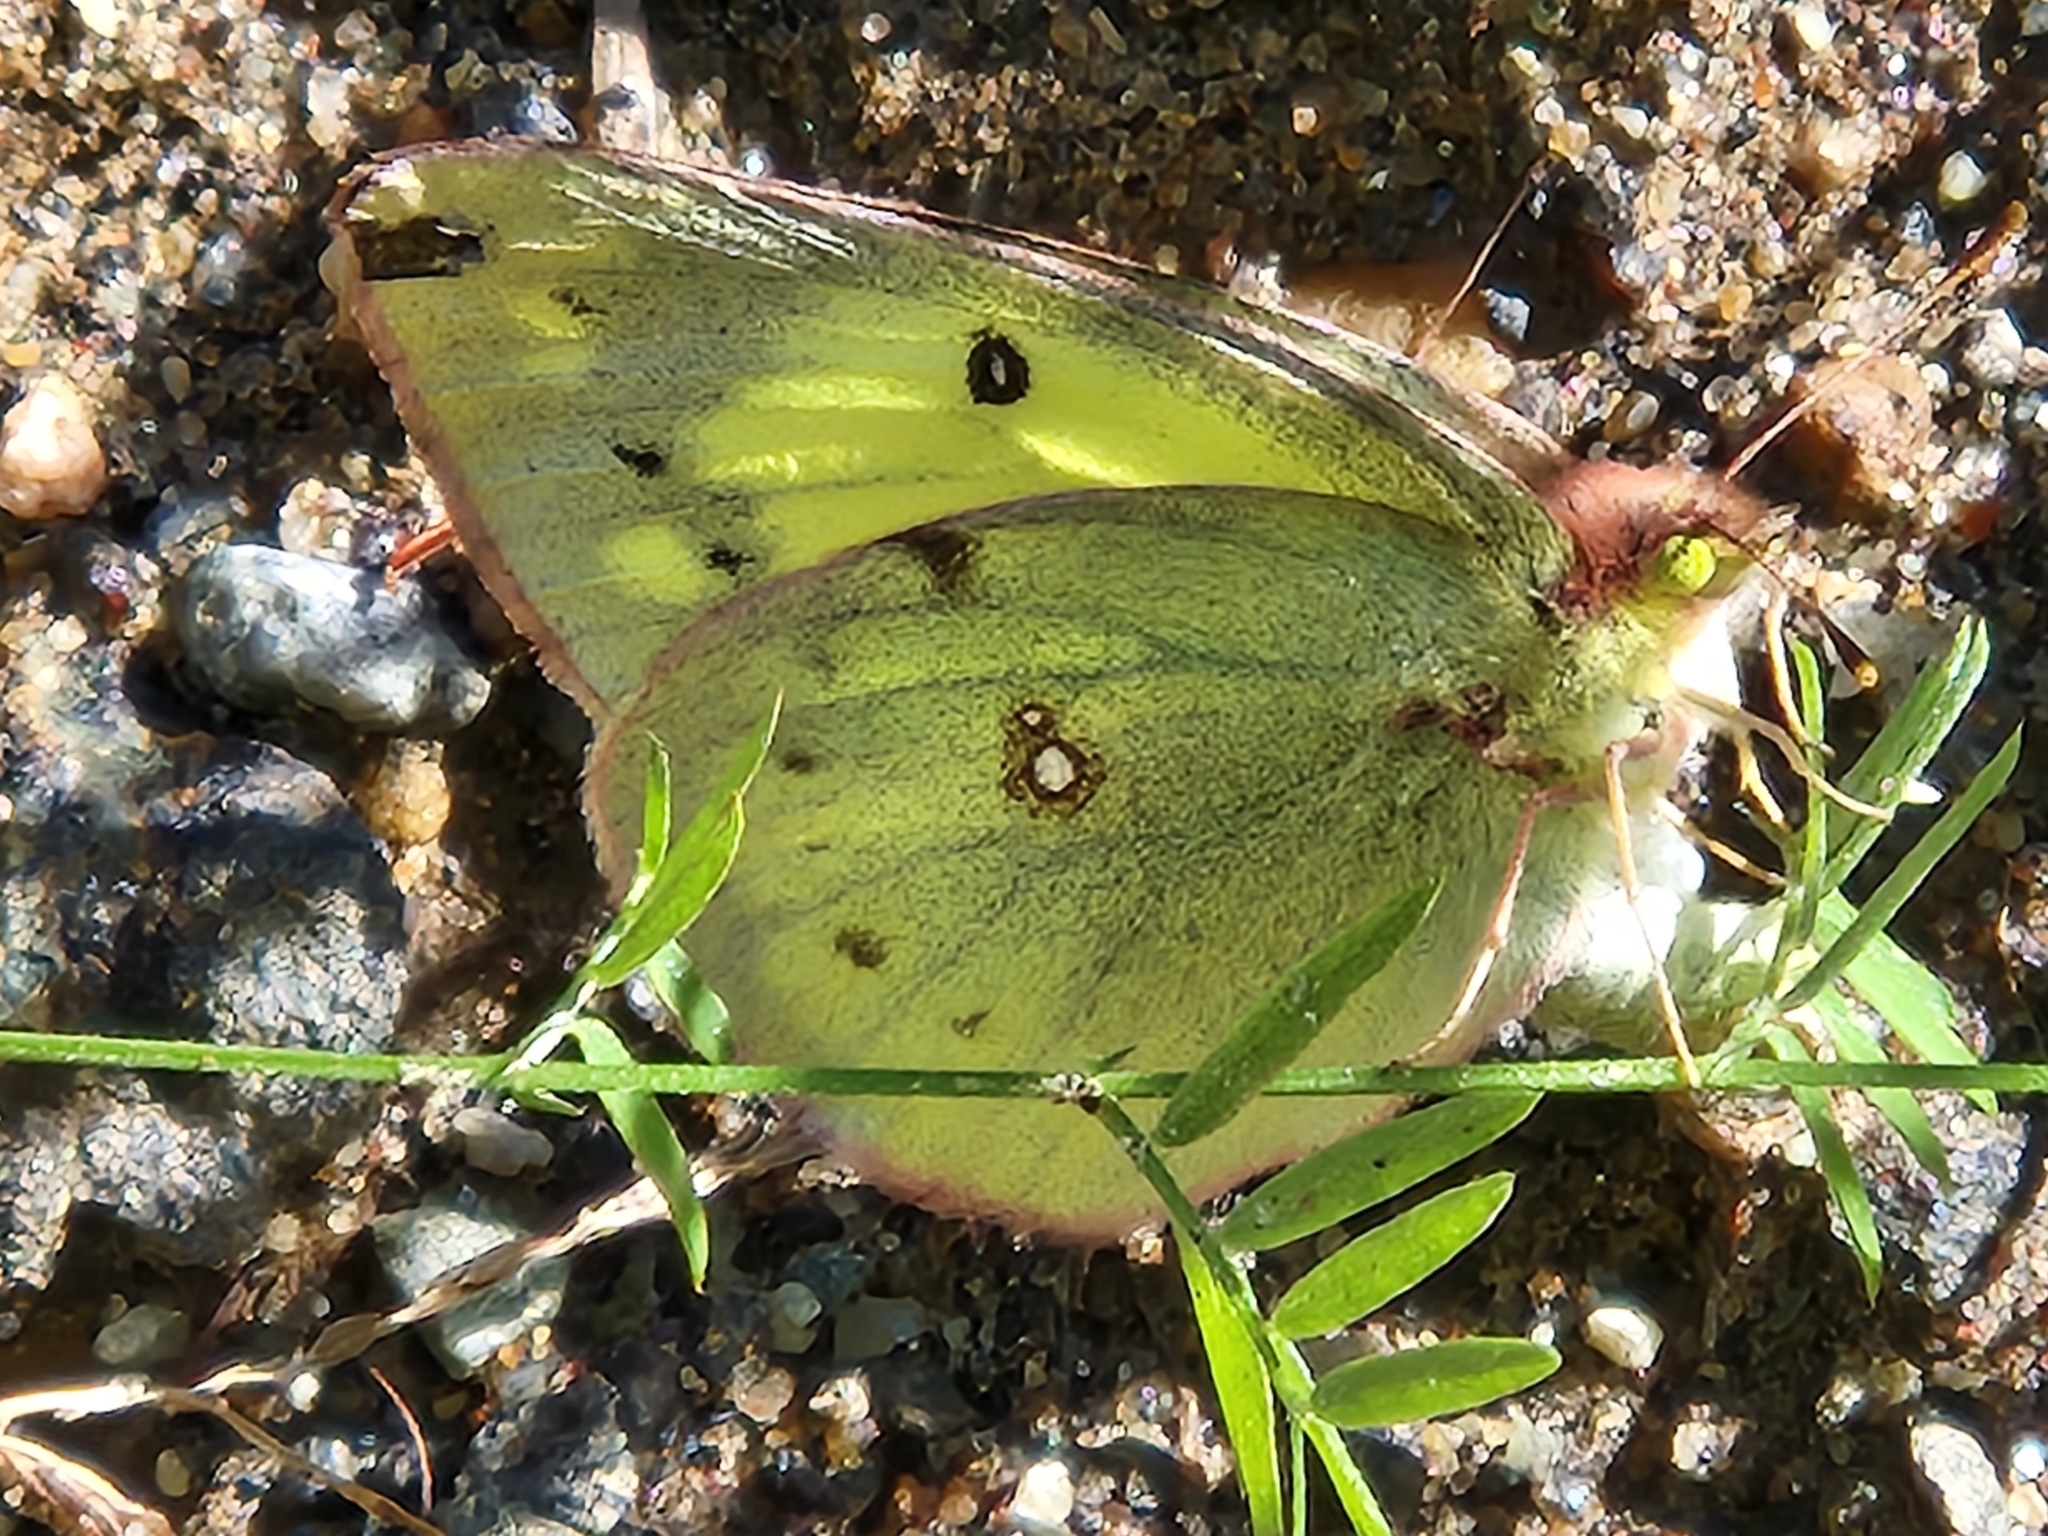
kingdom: Animalia
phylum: Arthropoda
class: Insecta
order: Lepidoptera
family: Pieridae
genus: Colias
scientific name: Colias philodice
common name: Clouded sulphur
